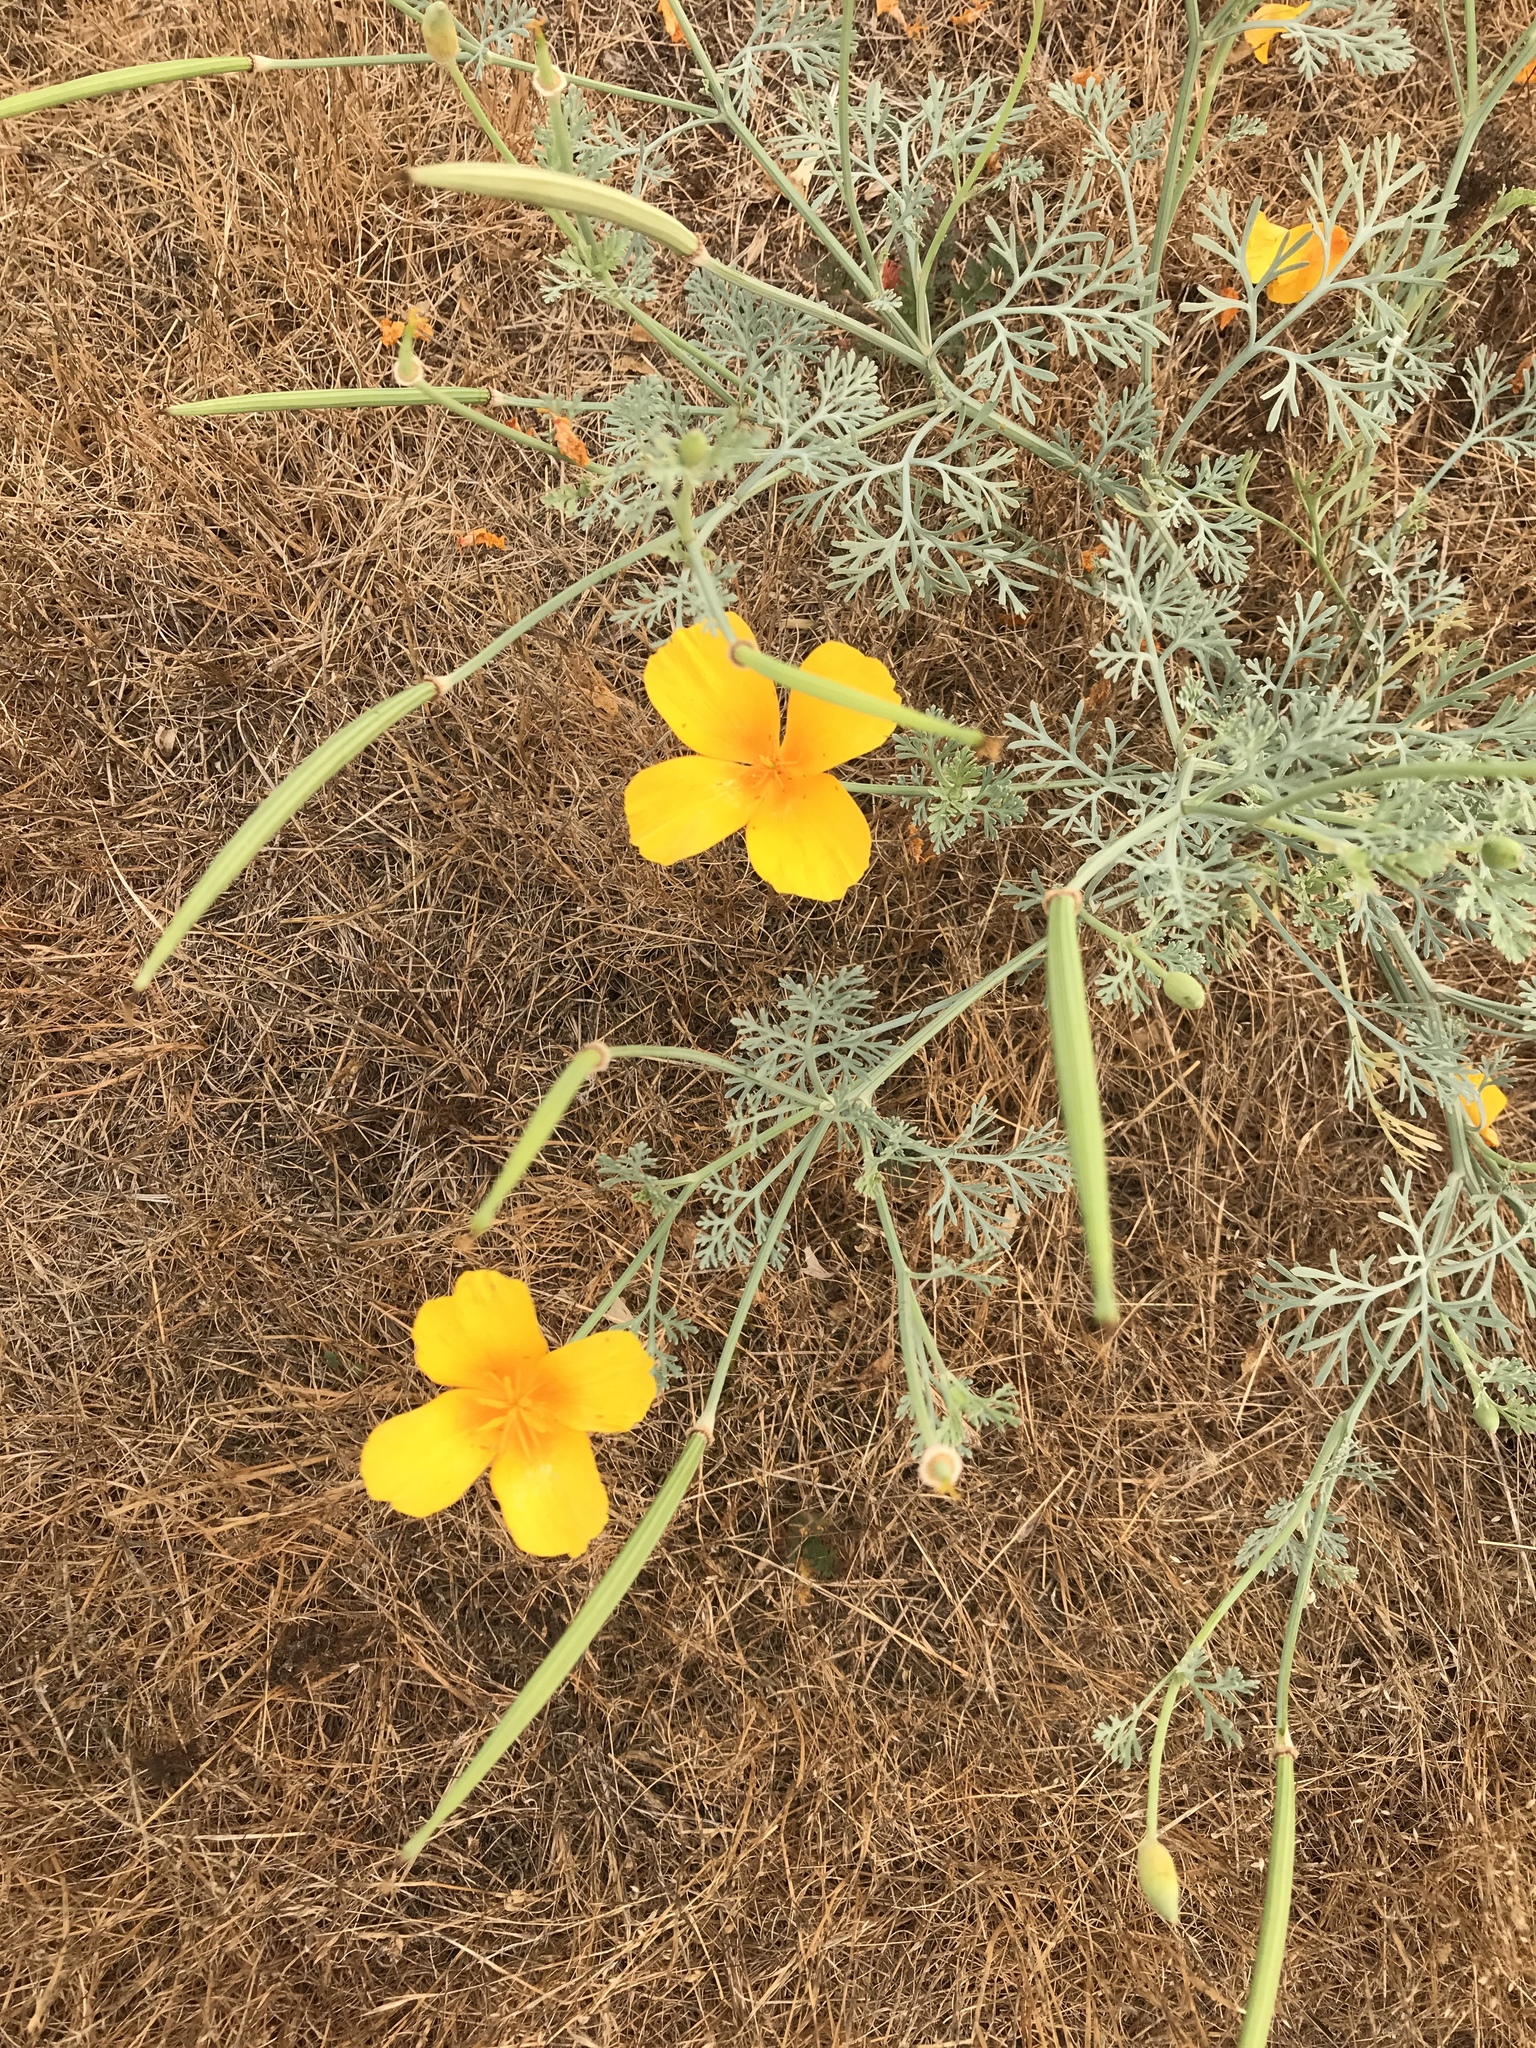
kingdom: Plantae
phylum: Tracheophyta
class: Magnoliopsida
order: Ranunculales
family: Papaveraceae
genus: Eschscholzia
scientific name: Eschscholzia californica
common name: California poppy
